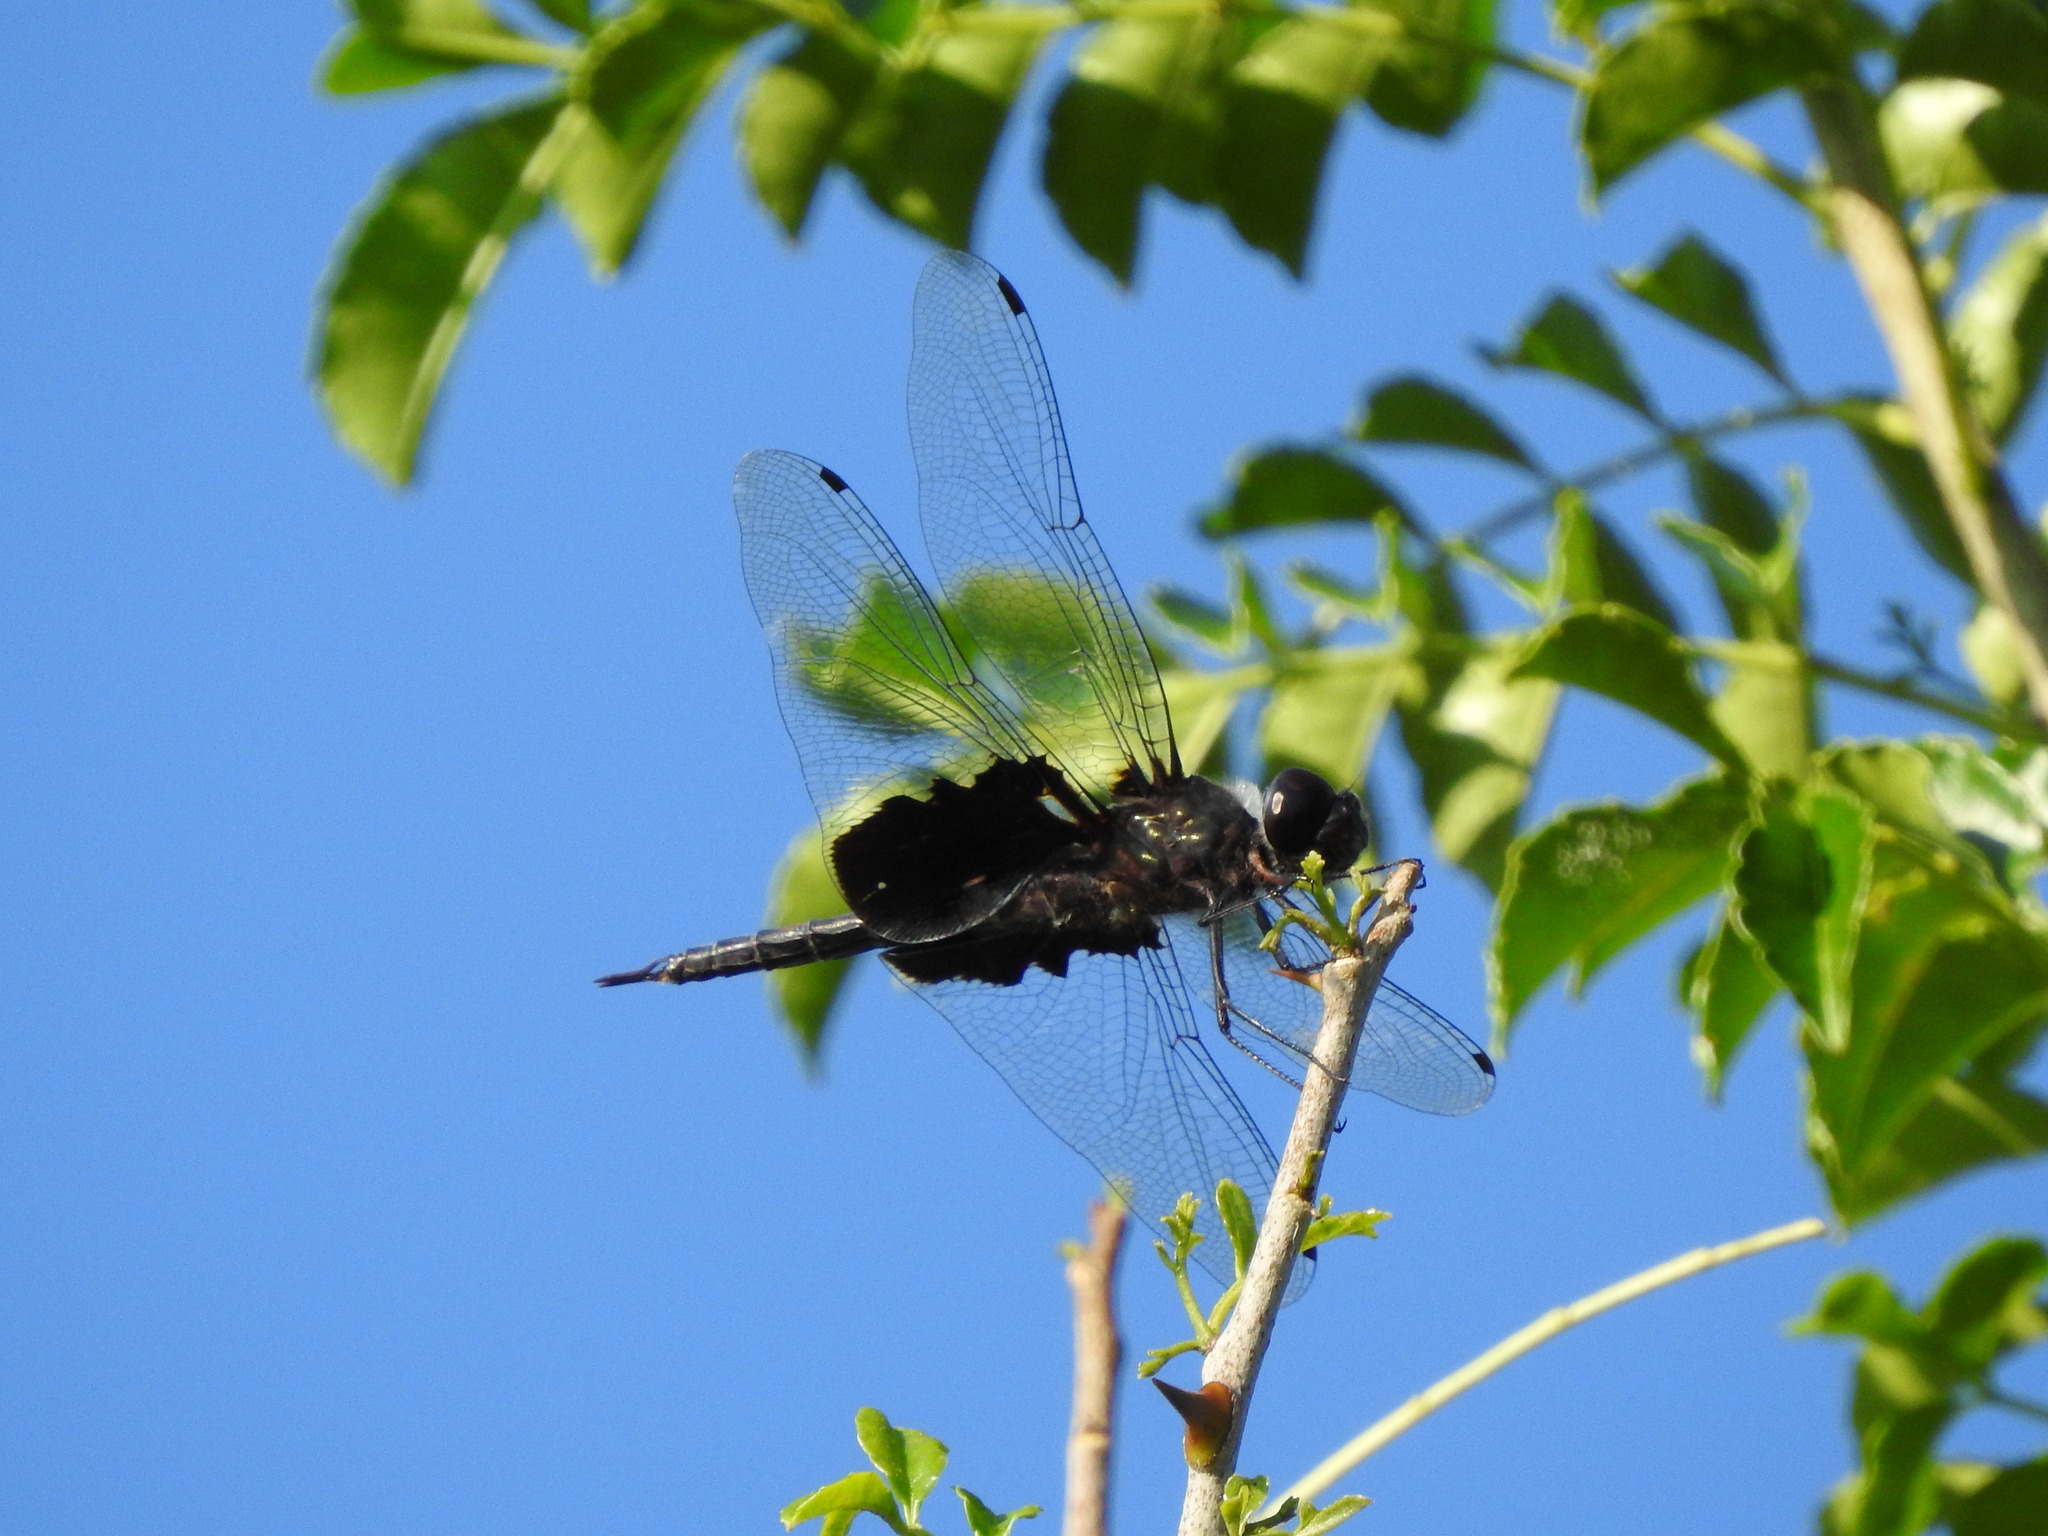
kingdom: Animalia
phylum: Arthropoda
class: Insecta
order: Odonata
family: Libellulidae
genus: Tramea
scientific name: Tramea lacerata
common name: Black saddlebags
